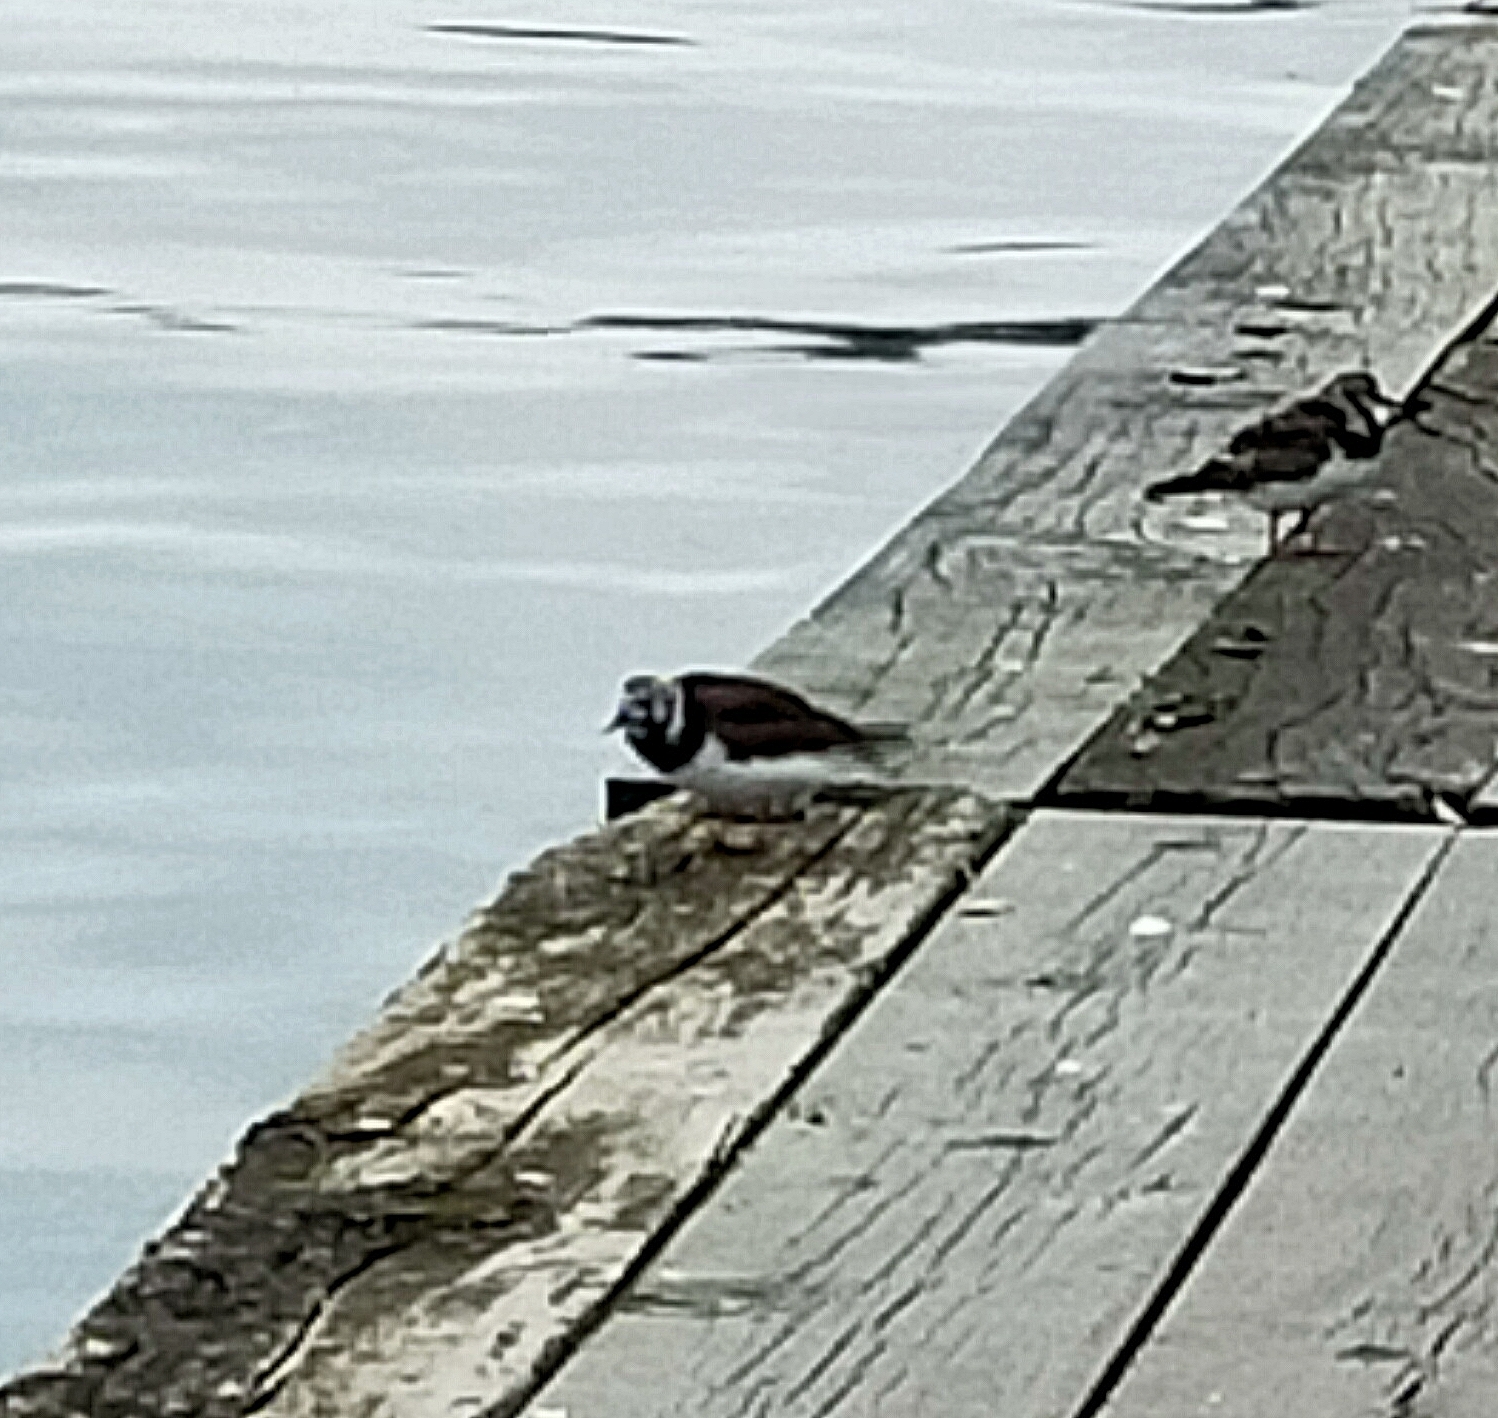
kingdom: Animalia
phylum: Chordata
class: Aves
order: Charadriiformes
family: Scolopacidae
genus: Arenaria
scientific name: Arenaria interpres
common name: Ruddy turnstone
